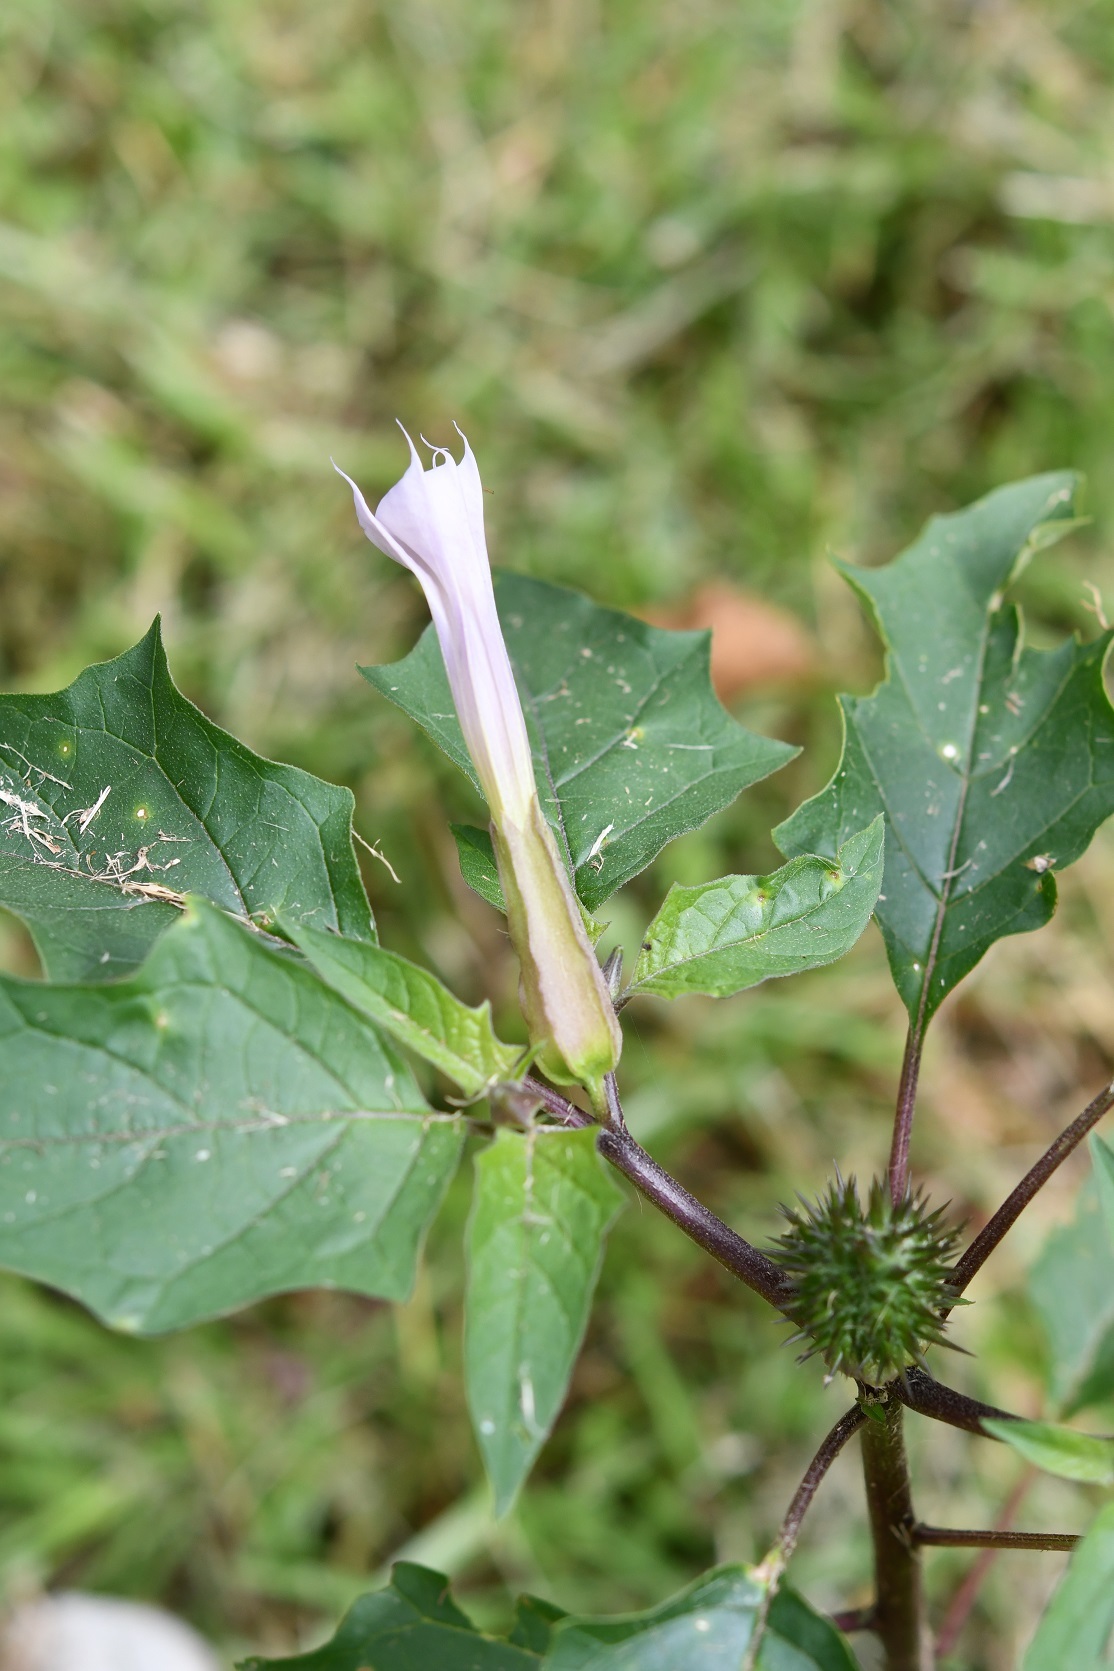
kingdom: Plantae
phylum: Tracheophyta
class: Magnoliopsida
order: Solanales
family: Solanaceae
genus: Datura
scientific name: Datura stramonium
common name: Thorn-apple
